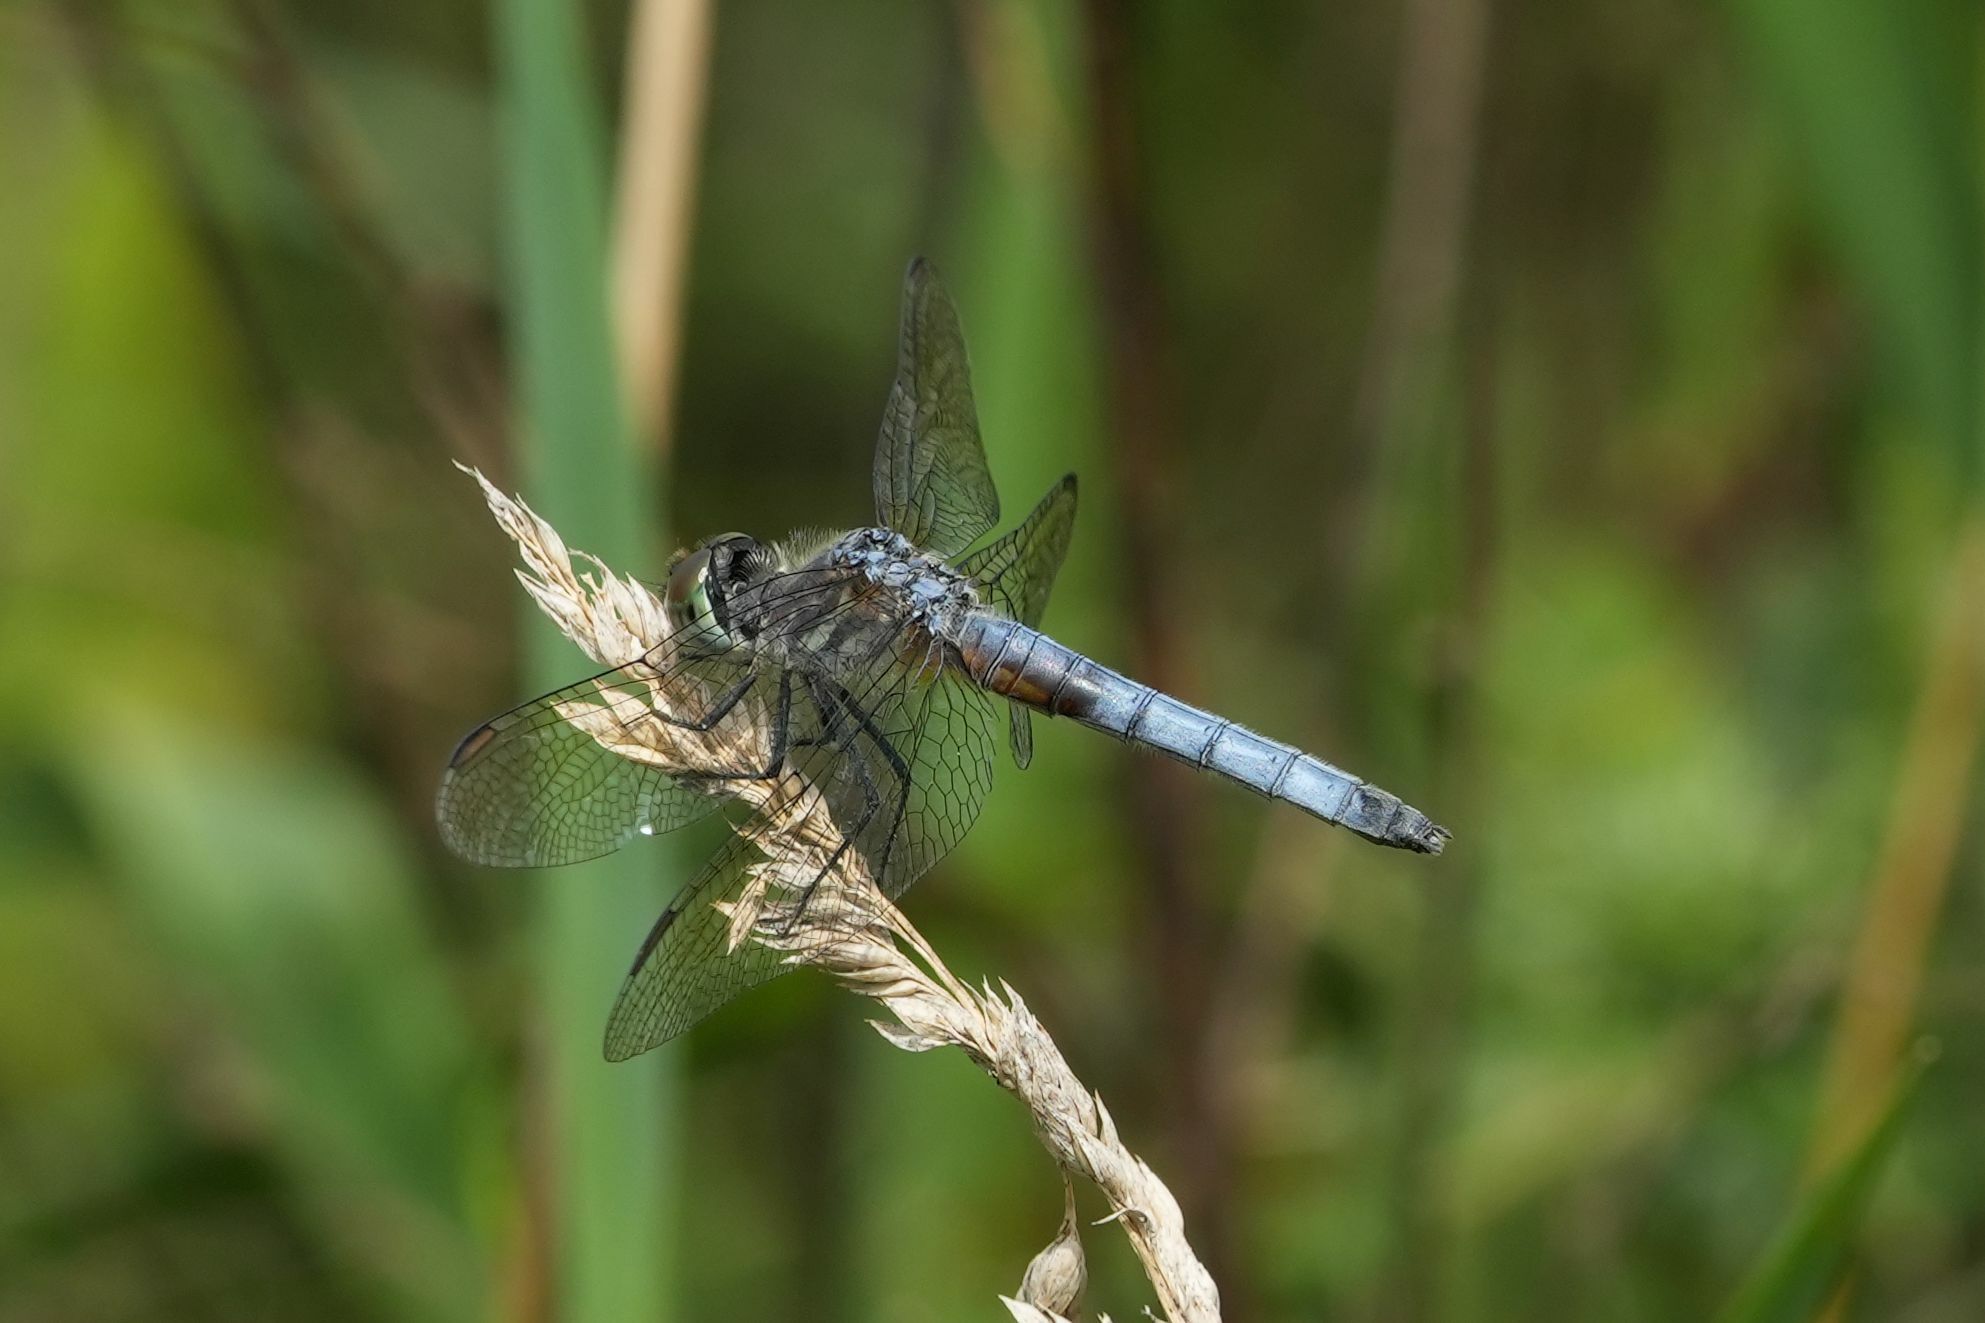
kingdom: Animalia
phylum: Arthropoda
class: Insecta
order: Odonata
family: Libellulidae
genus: Pachydiplax
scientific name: Pachydiplax longipennis
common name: Blue dasher
